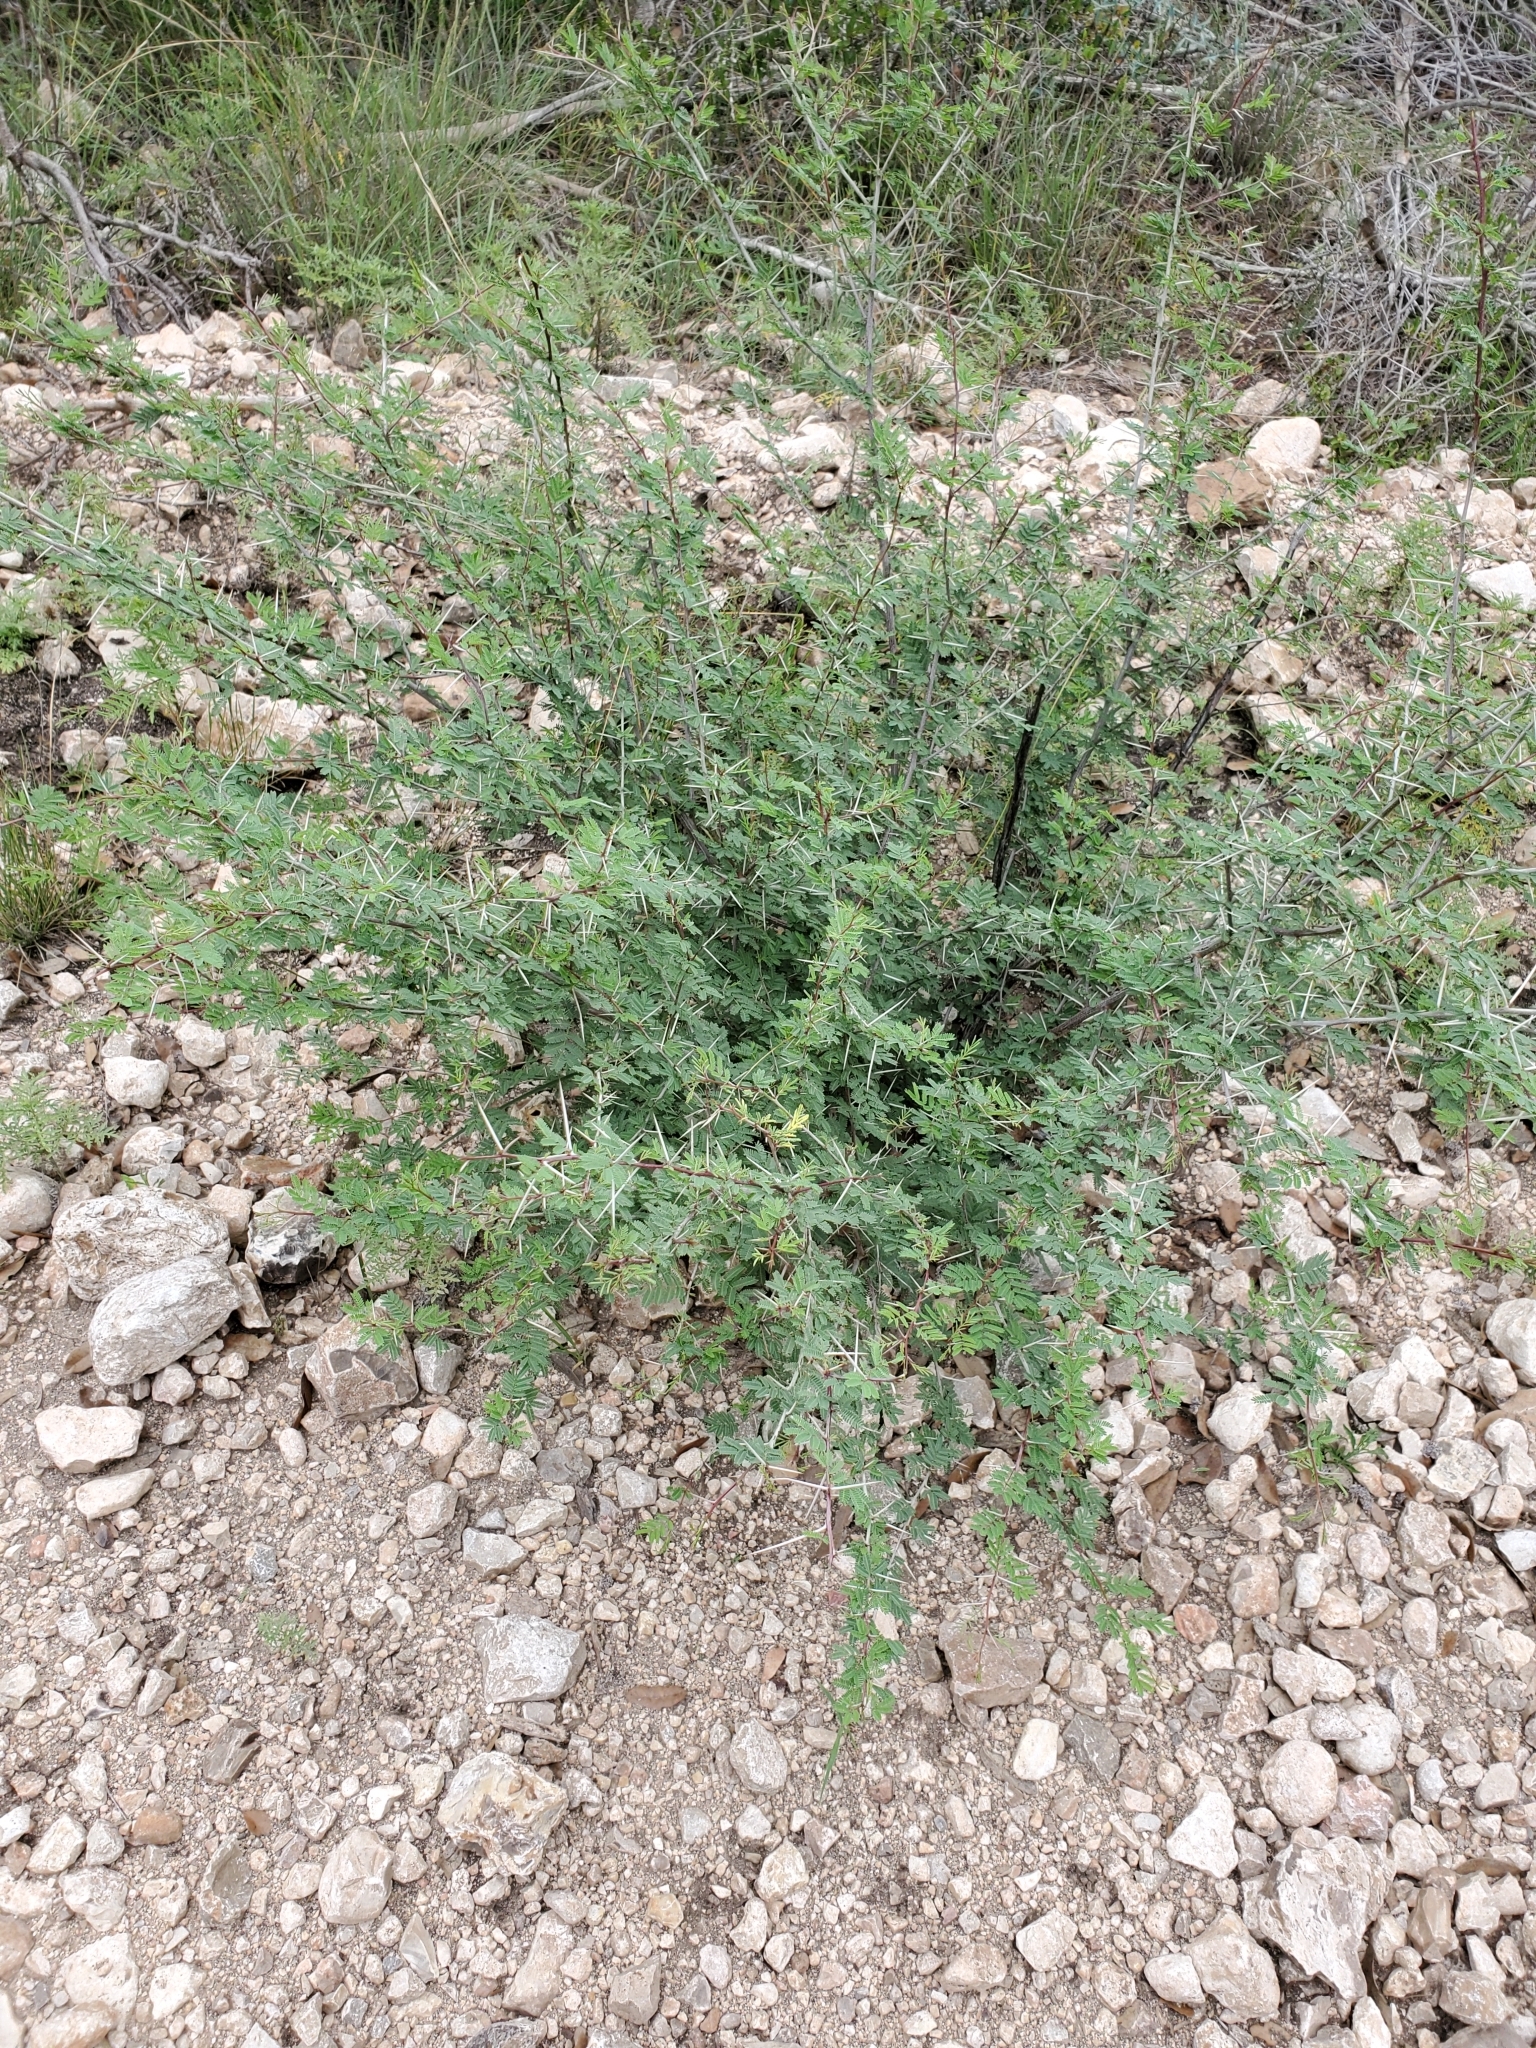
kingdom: Plantae
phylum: Tracheophyta
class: Magnoliopsida
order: Fabales
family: Fabaceae
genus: Vachellia
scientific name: Vachellia farnesiana
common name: Sweet acacia
